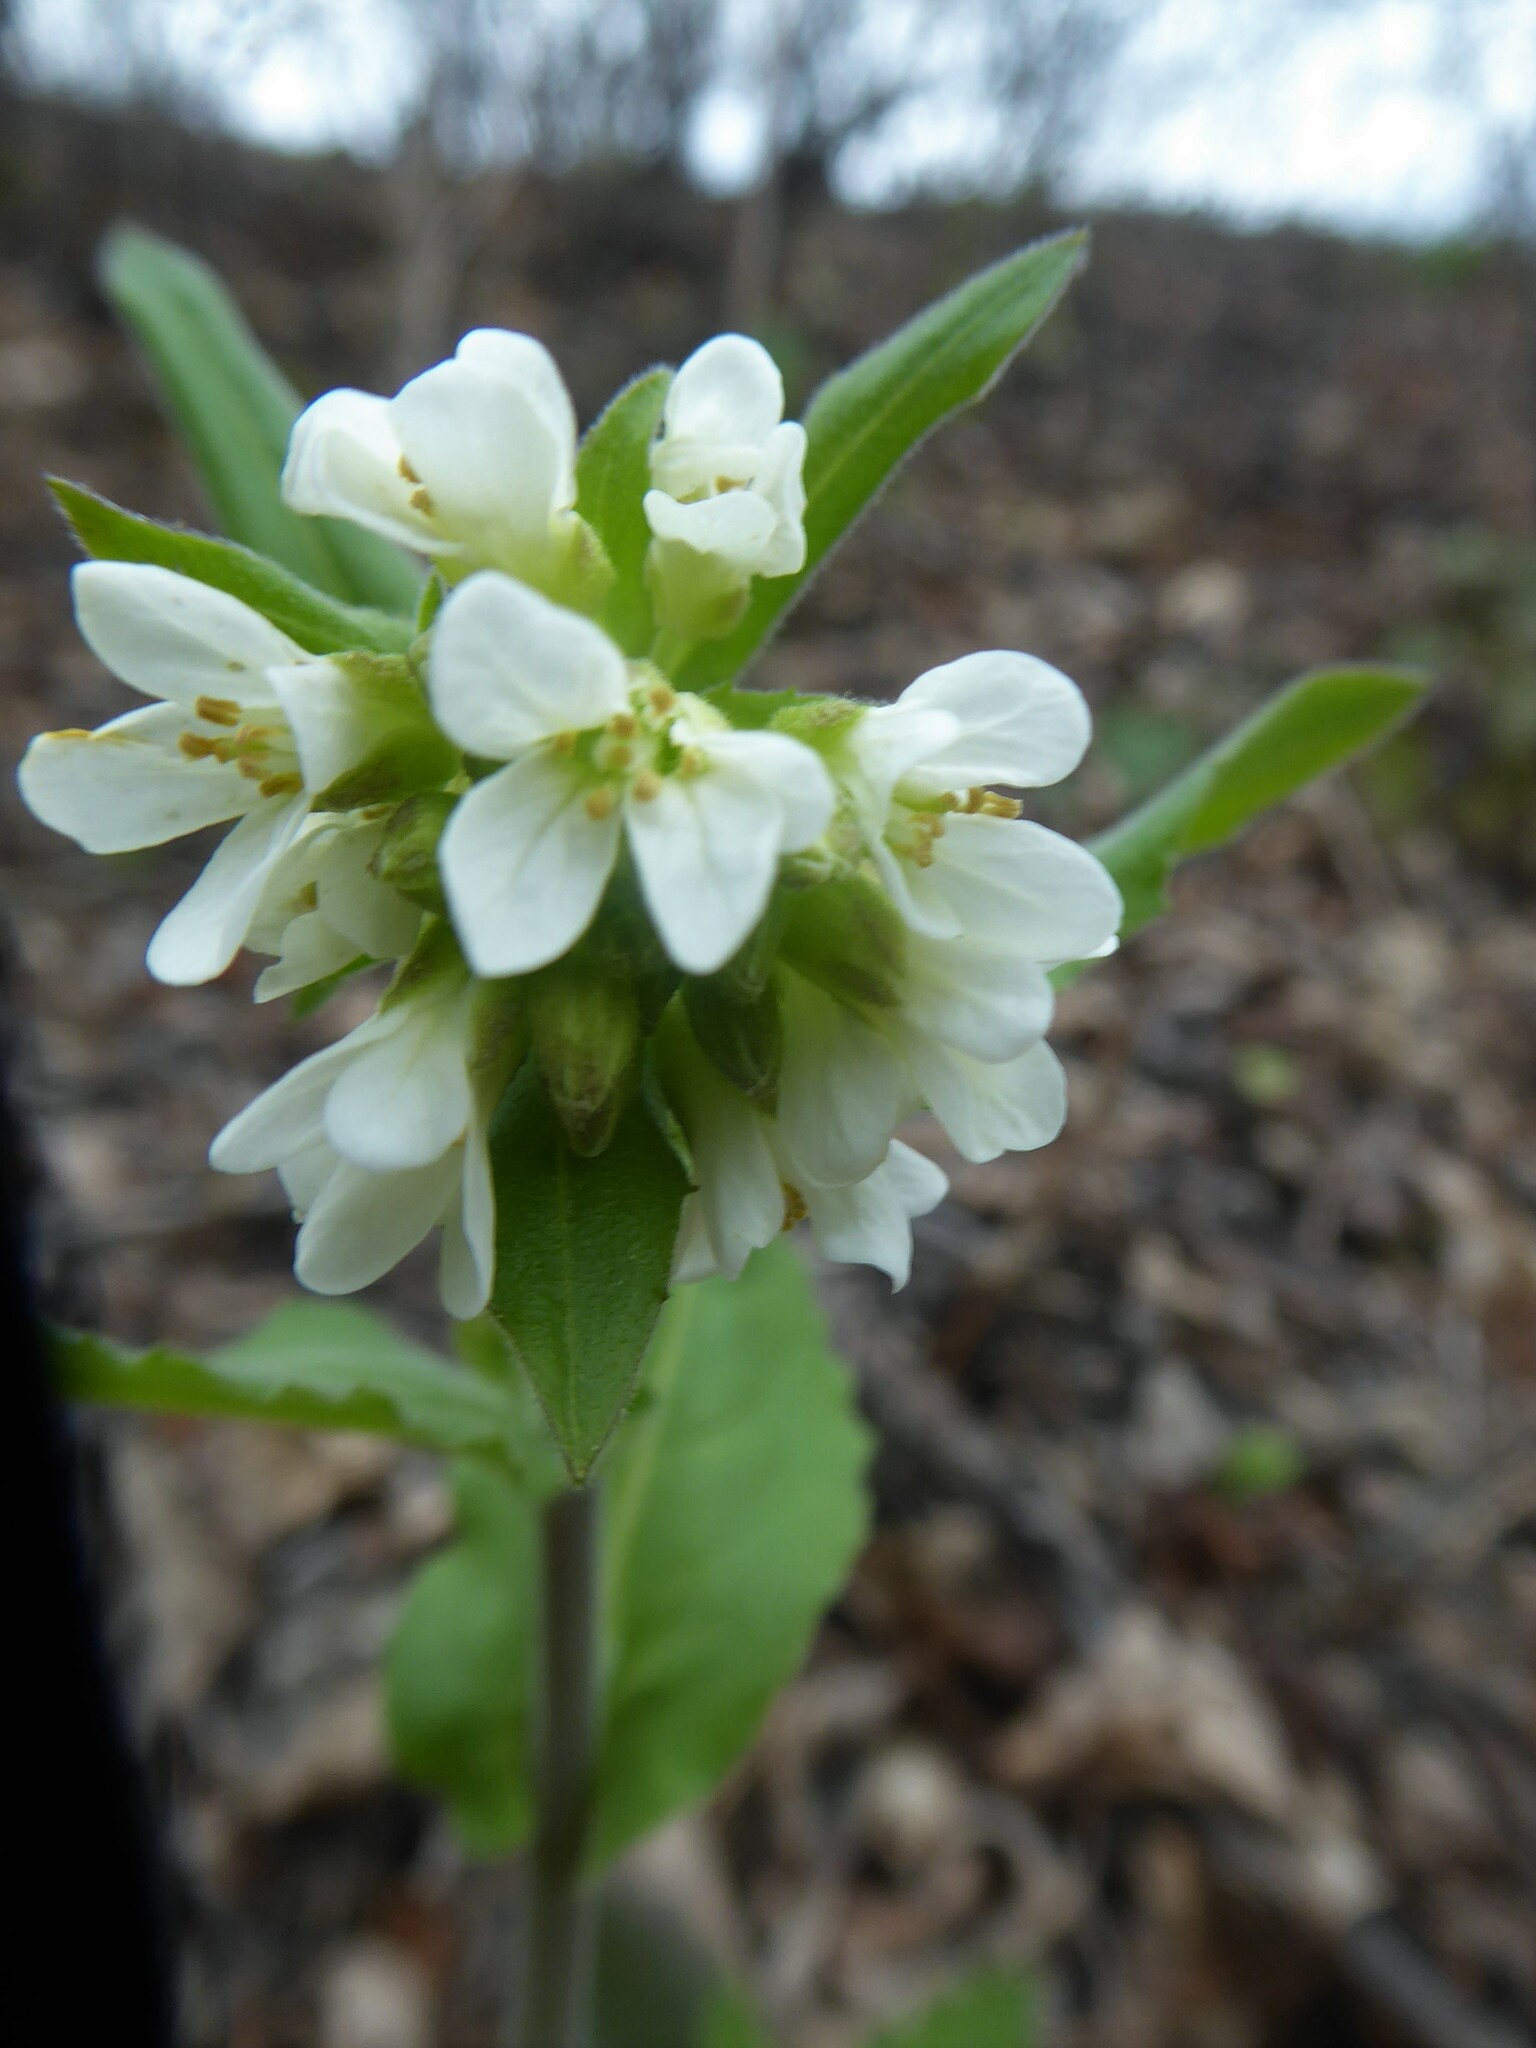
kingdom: Plantae
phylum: Tracheophyta
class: Magnoliopsida
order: Brassicales
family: Brassicaceae
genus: Pseudoturritis
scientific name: Pseudoturritis turrita
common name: Tower cress
